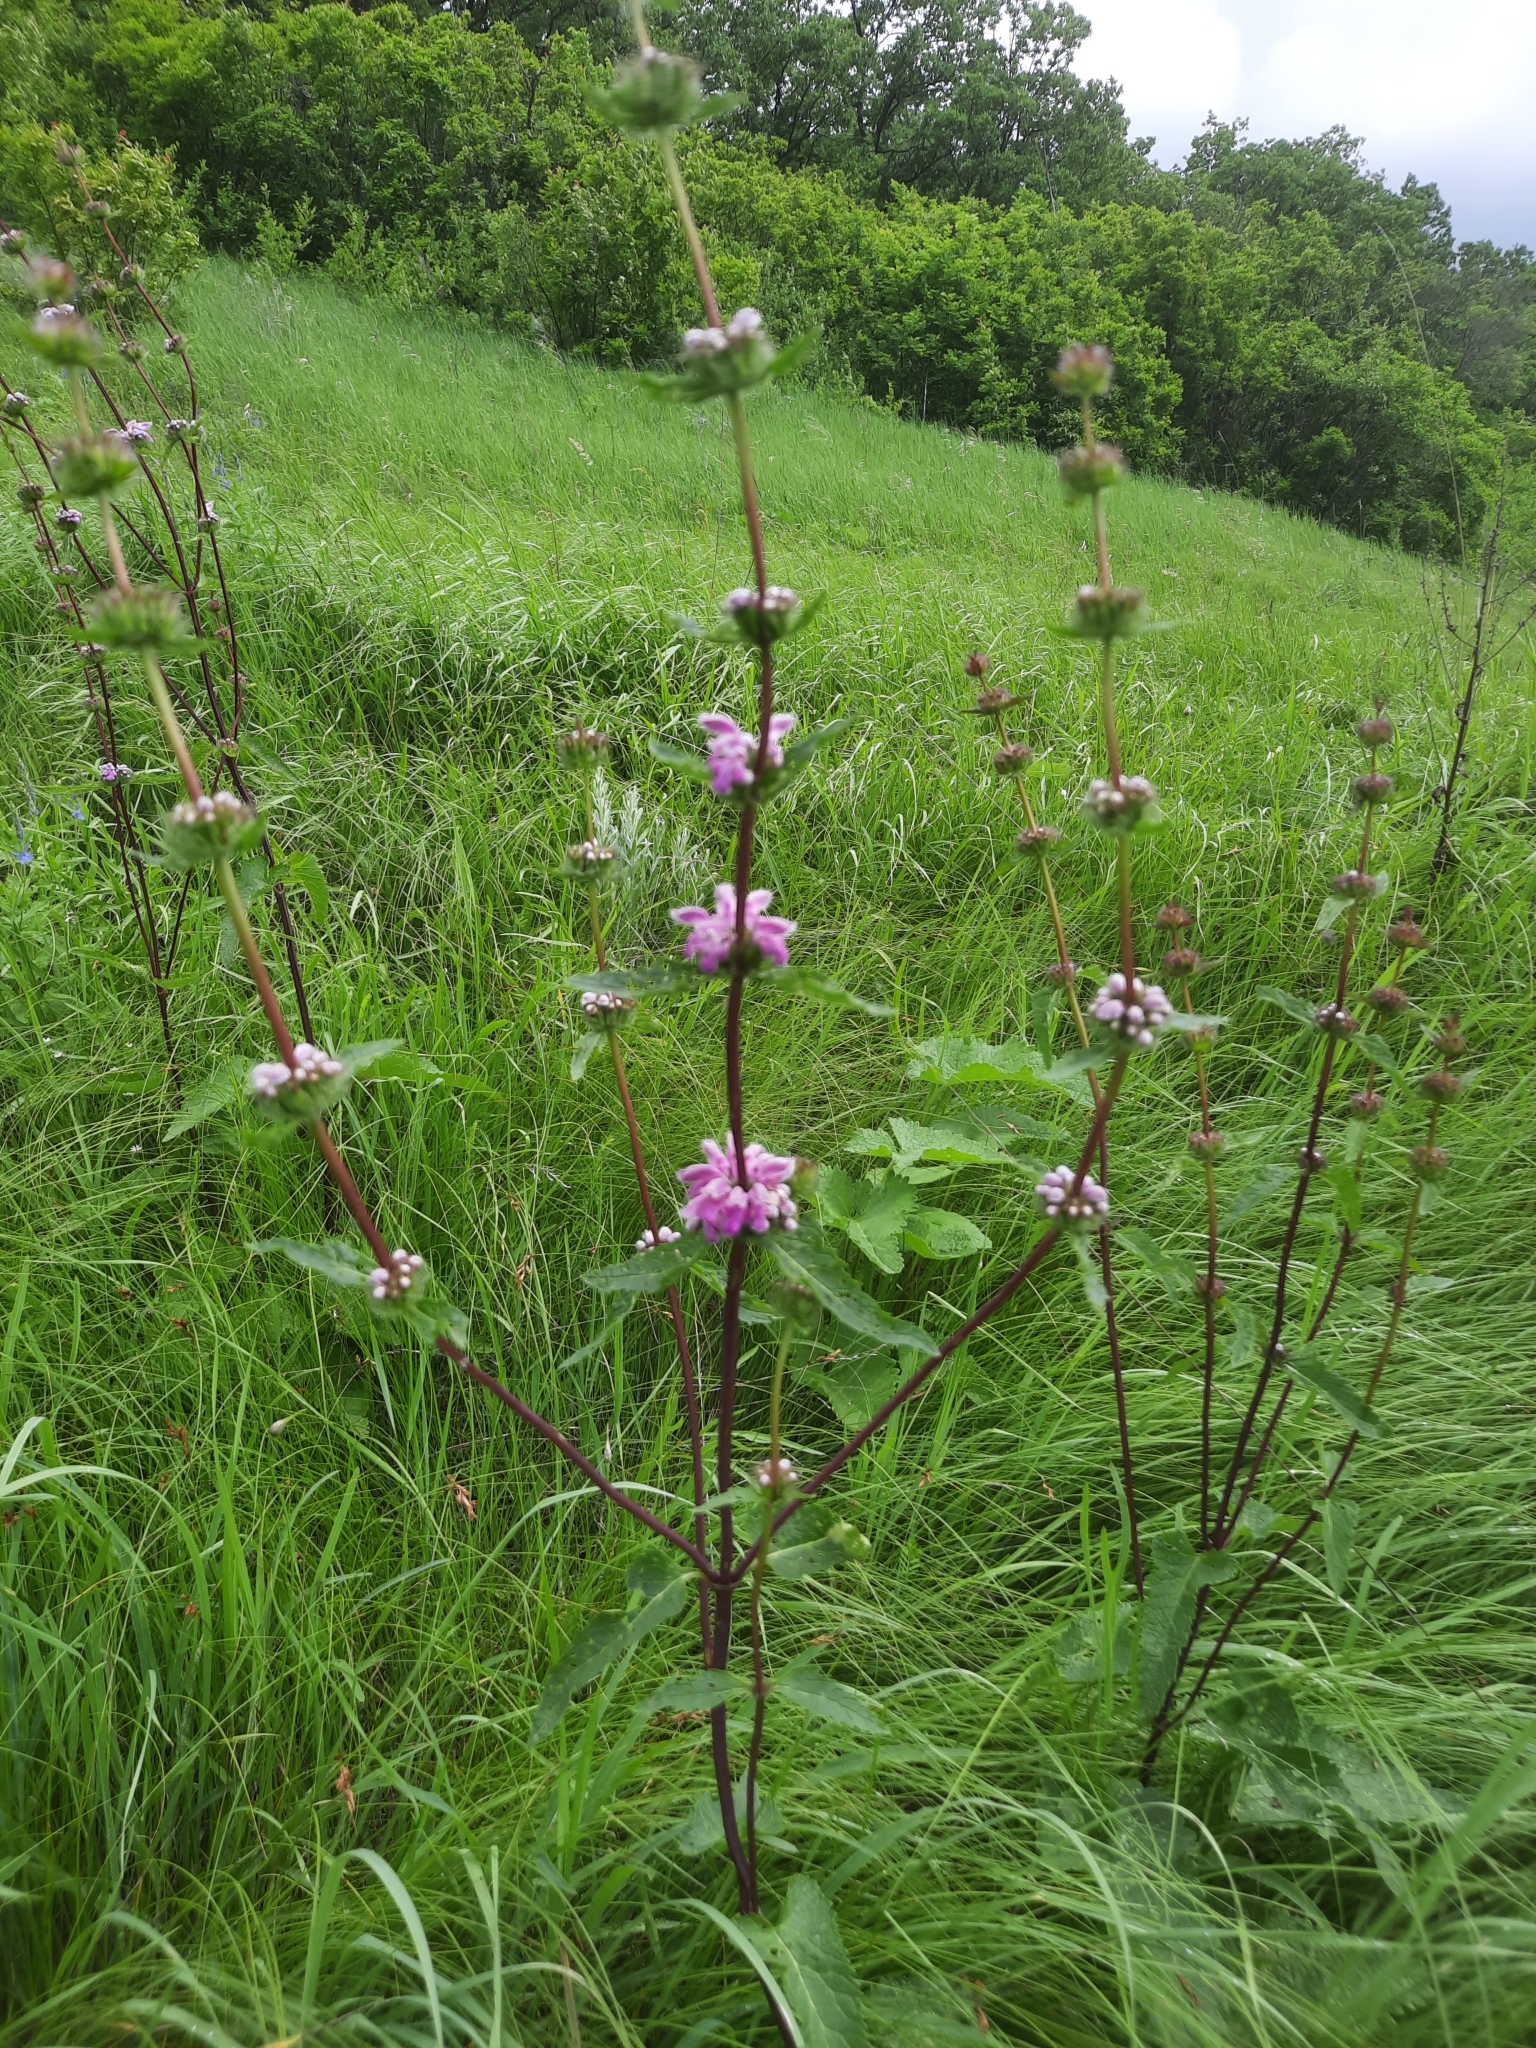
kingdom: Plantae
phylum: Tracheophyta
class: Magnoliopsida
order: Lamiales
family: Lamiaceae
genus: Phlomoides
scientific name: Phlomoides tuberosa
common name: Tuberous jerusalem sage
